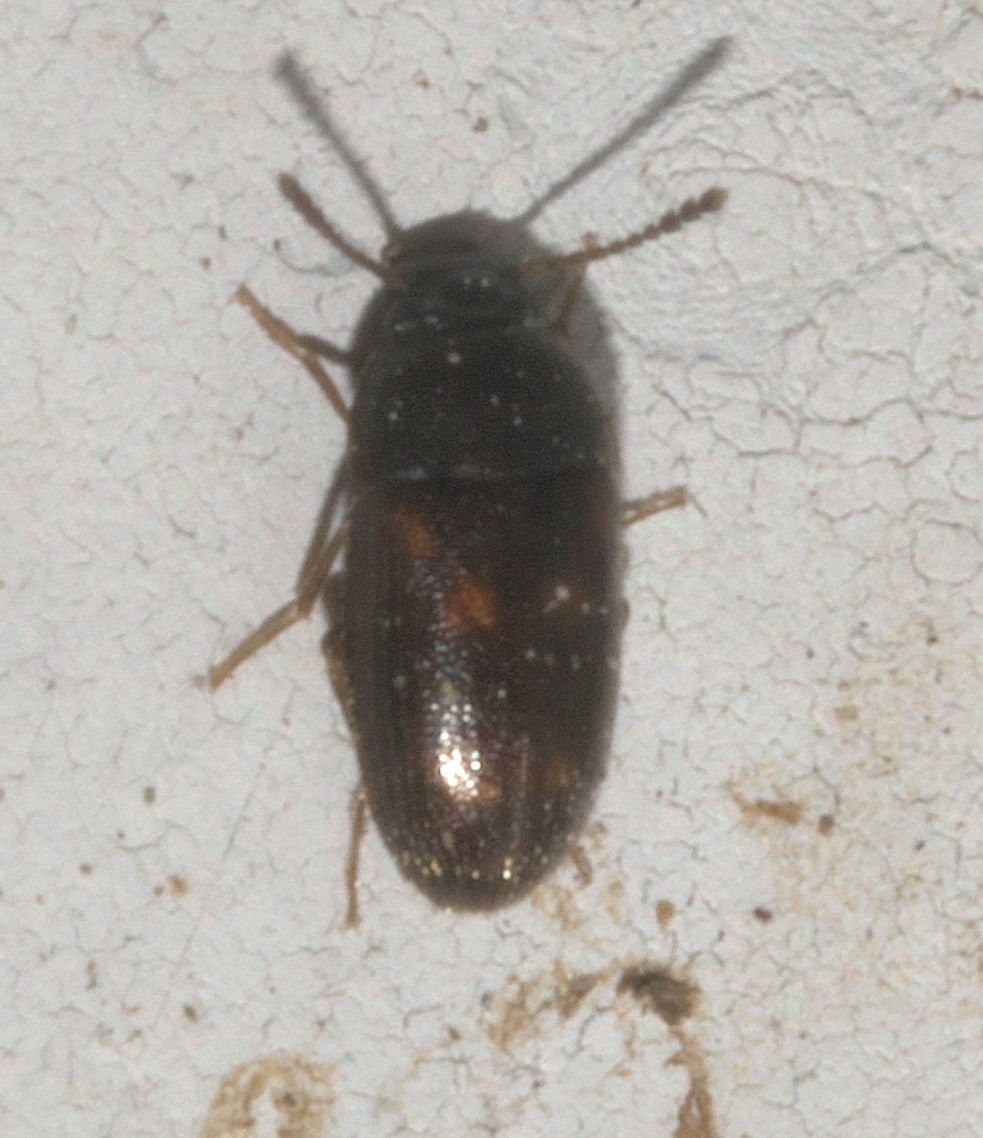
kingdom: Animalia
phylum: Arthropoda
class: Insecta
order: Coleoptera
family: Mycetophagidae
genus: Litargus
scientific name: Litargus sexpunctatus
